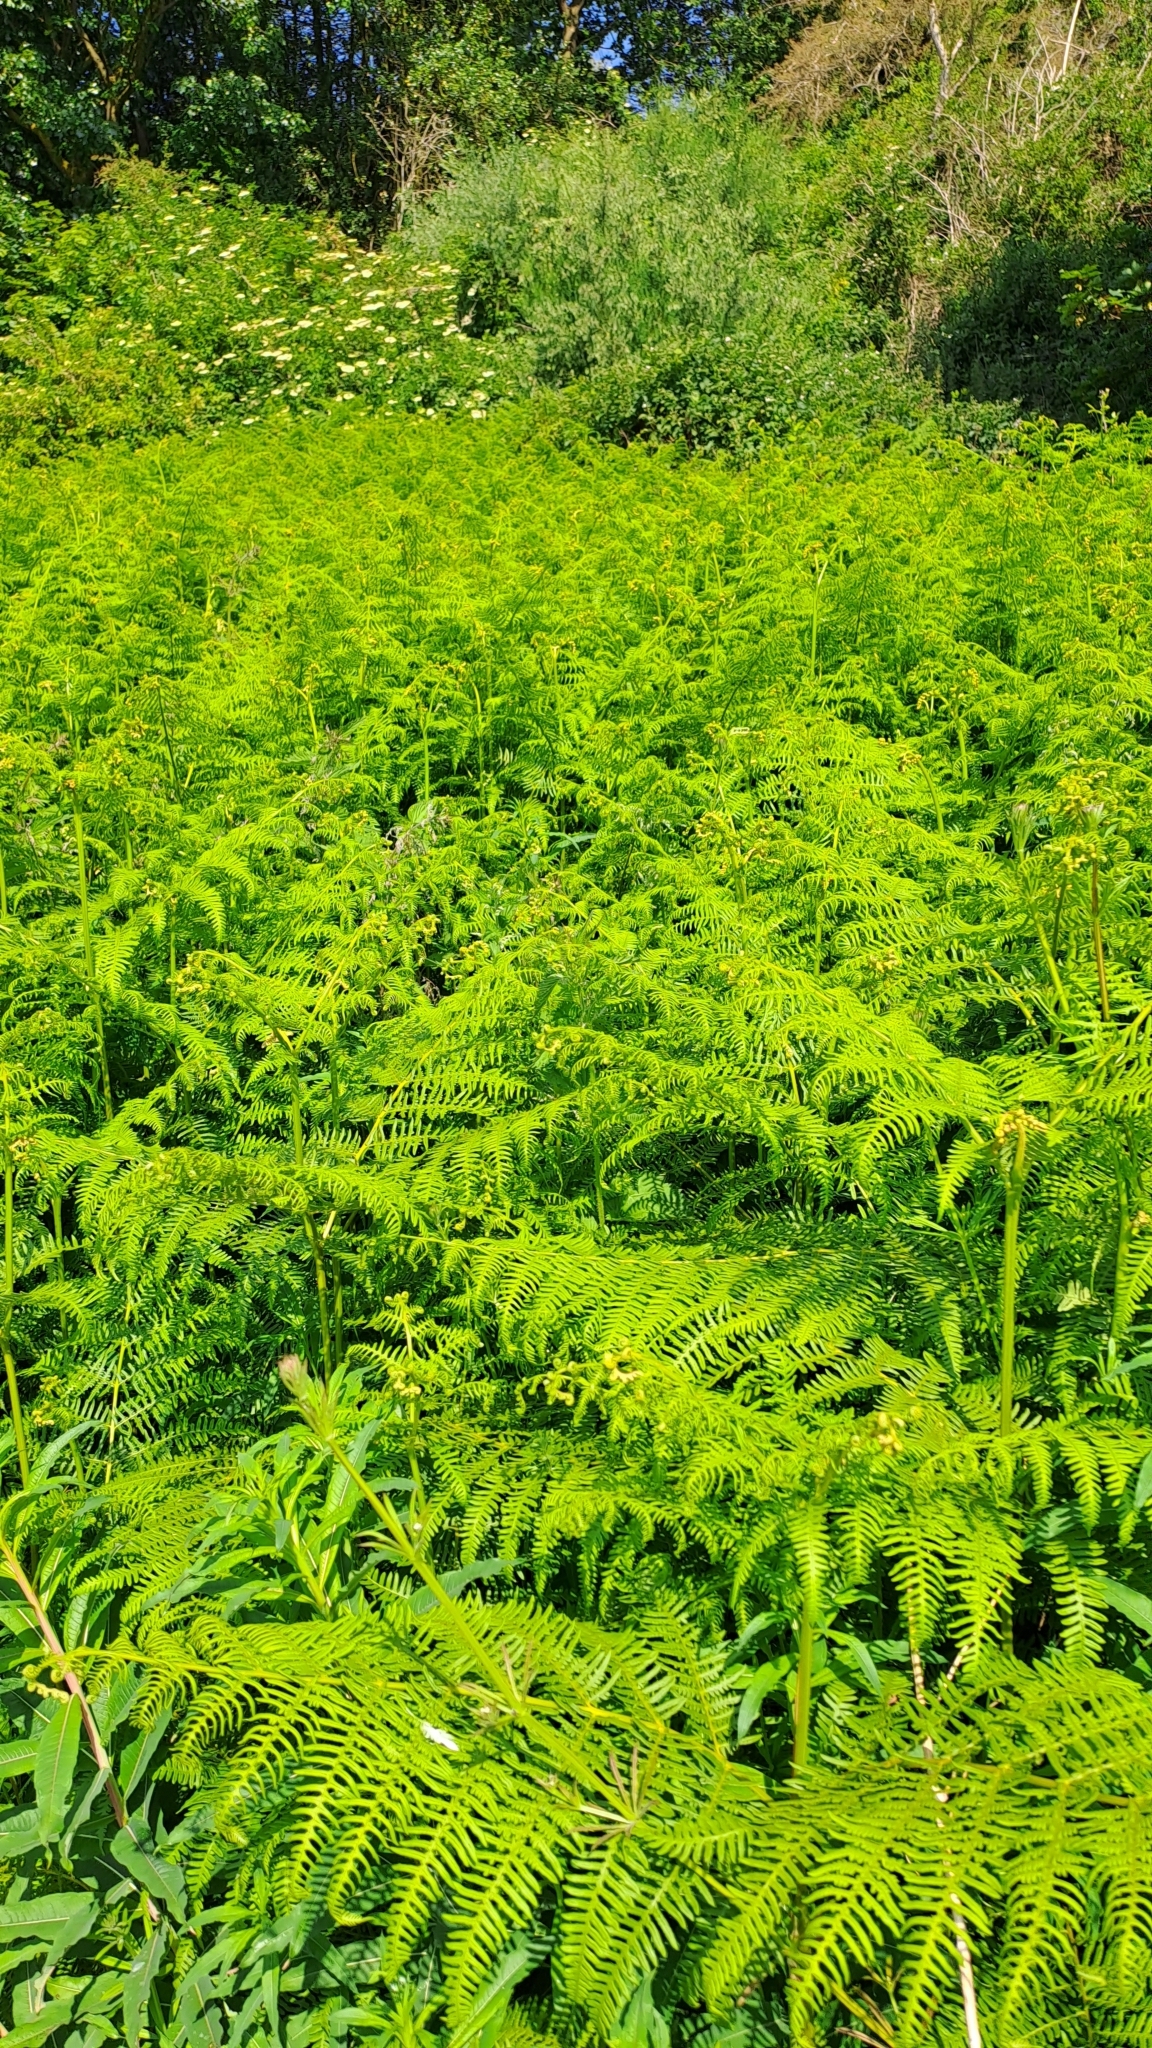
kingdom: Plantae
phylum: Tracheophyta
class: Polypodiopsida
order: Polypodiales
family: Dennstaedtiaceae
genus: Pteridium
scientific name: Pteridium aquilinum
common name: Bracken
